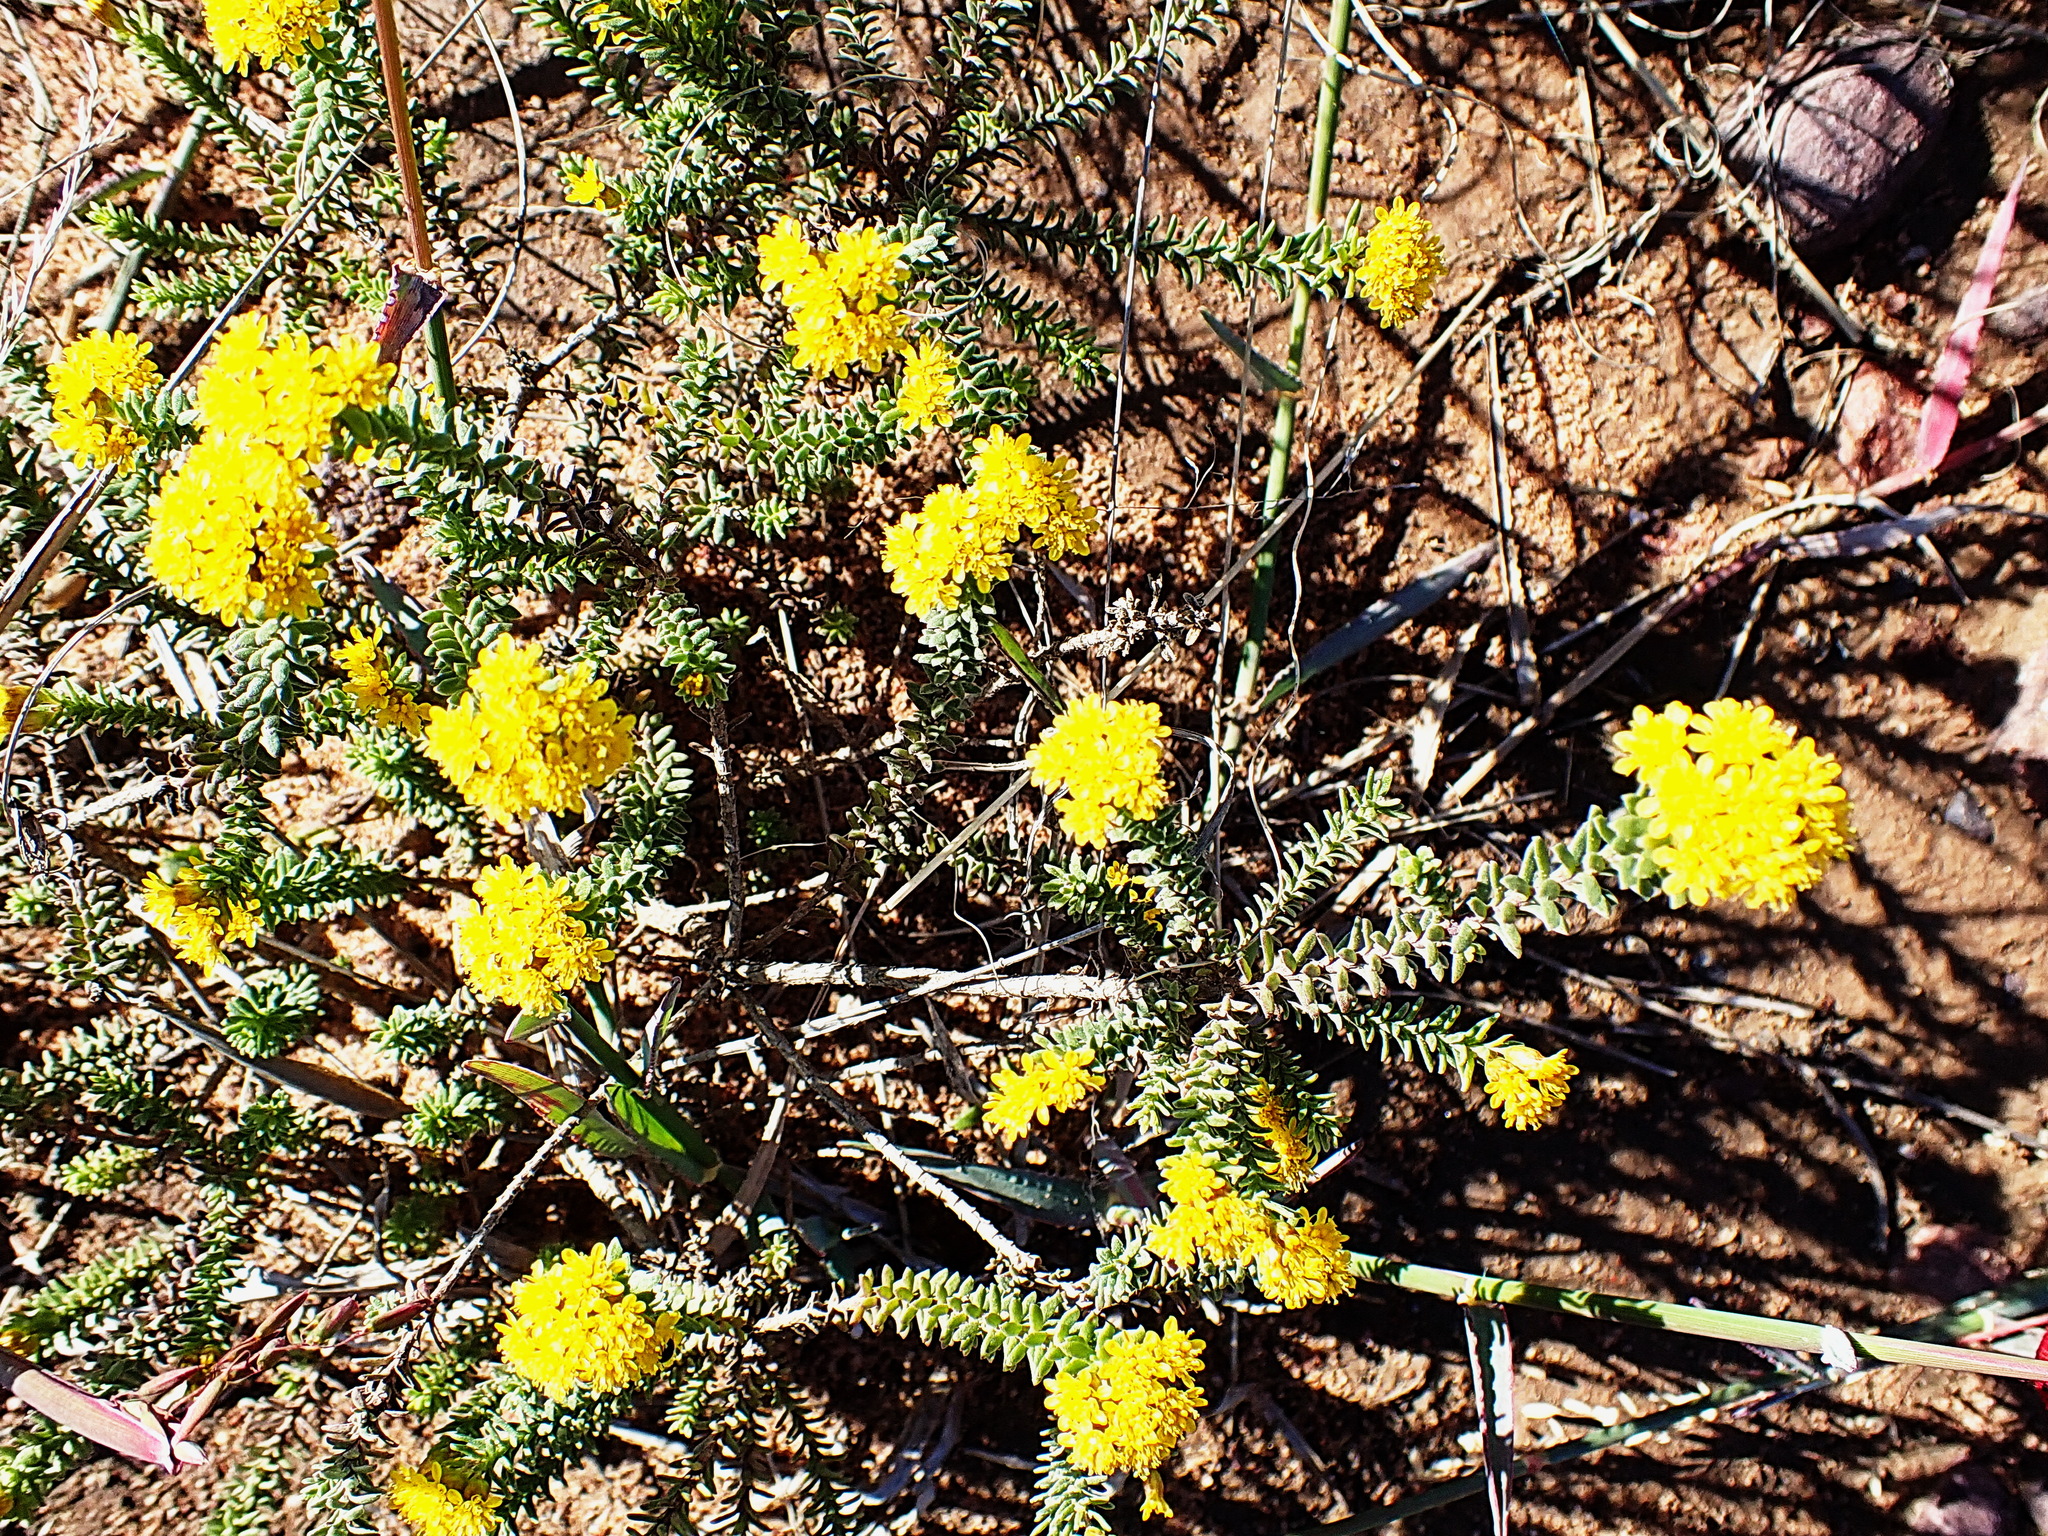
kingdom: Plantae
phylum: Tracheophyta
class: Magnoliopsida
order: Asterales
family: Asteraceae
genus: Oedera
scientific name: Oedera squarrosa
